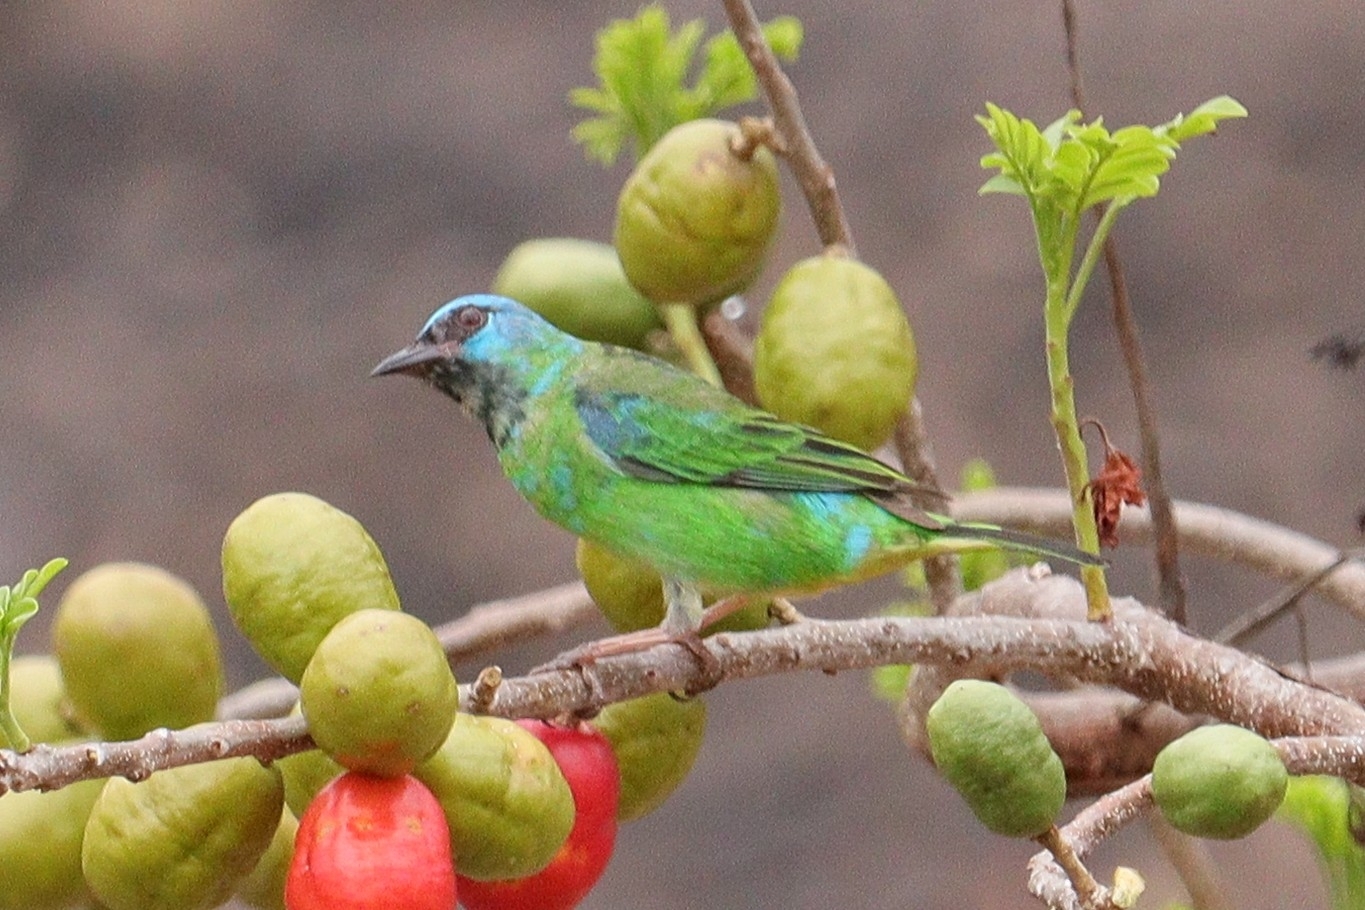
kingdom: Animalia
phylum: Chordata
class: Aves
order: Passeriformes
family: Thraupidae
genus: Dacnis
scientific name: Dacnis cayana
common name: Blue dacnis
